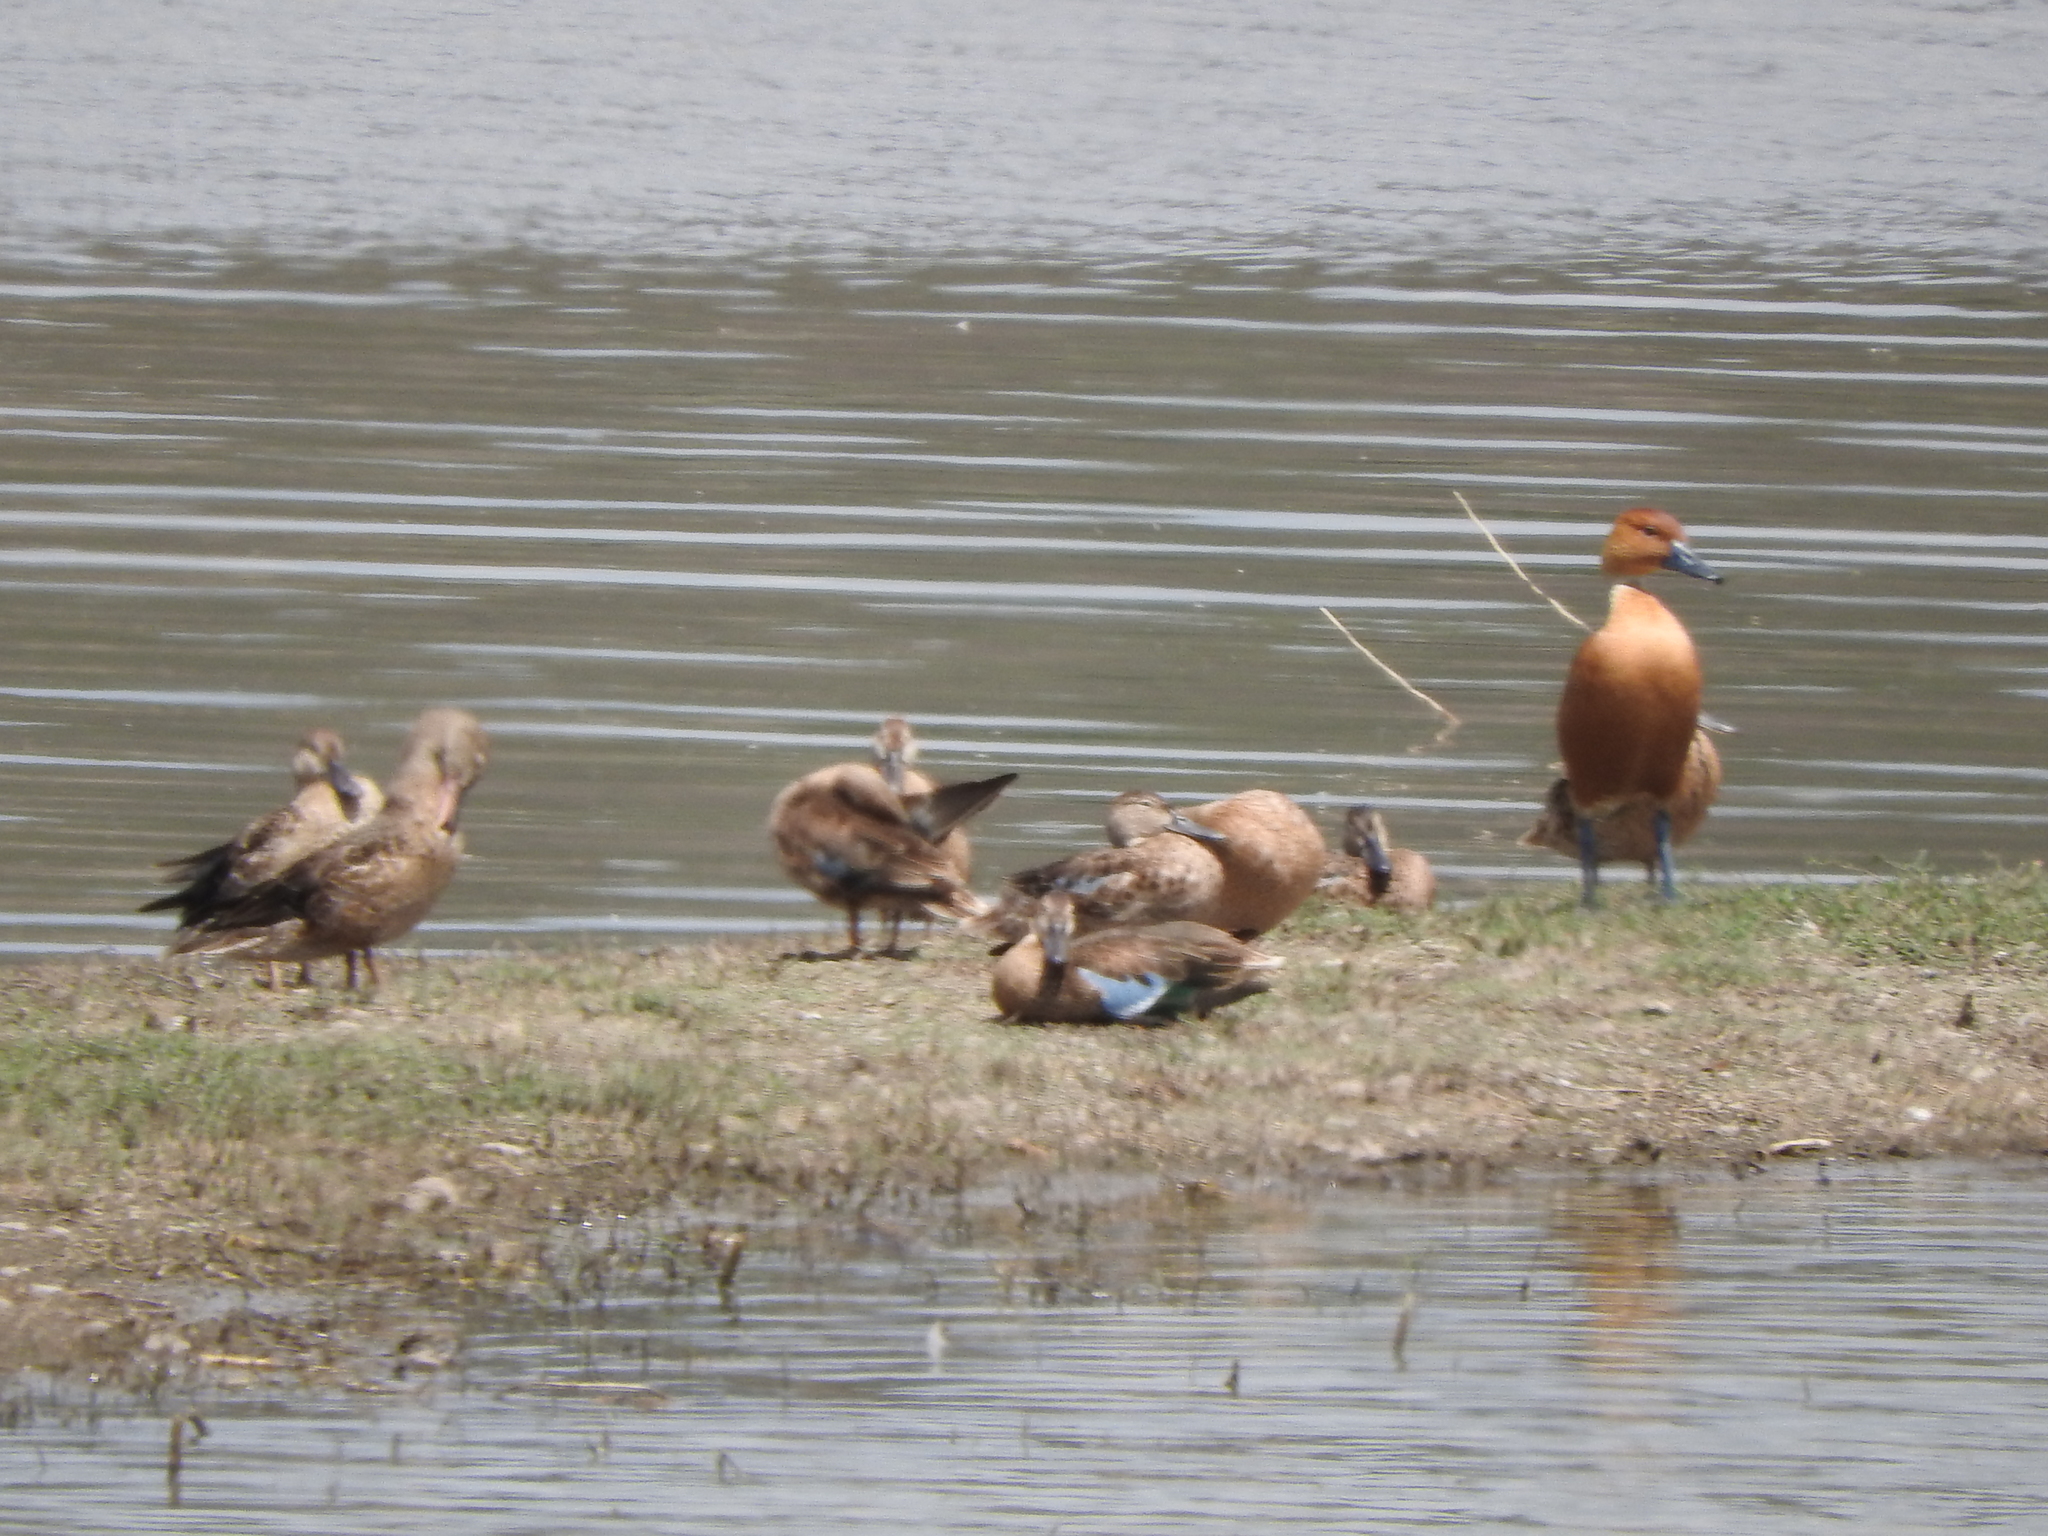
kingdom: Animalia
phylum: Chordata
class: Aves
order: Anseriformes
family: Anatidae
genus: Dendrocygna
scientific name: Dendrocygna bicolor
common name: Fulvous whistling duck
